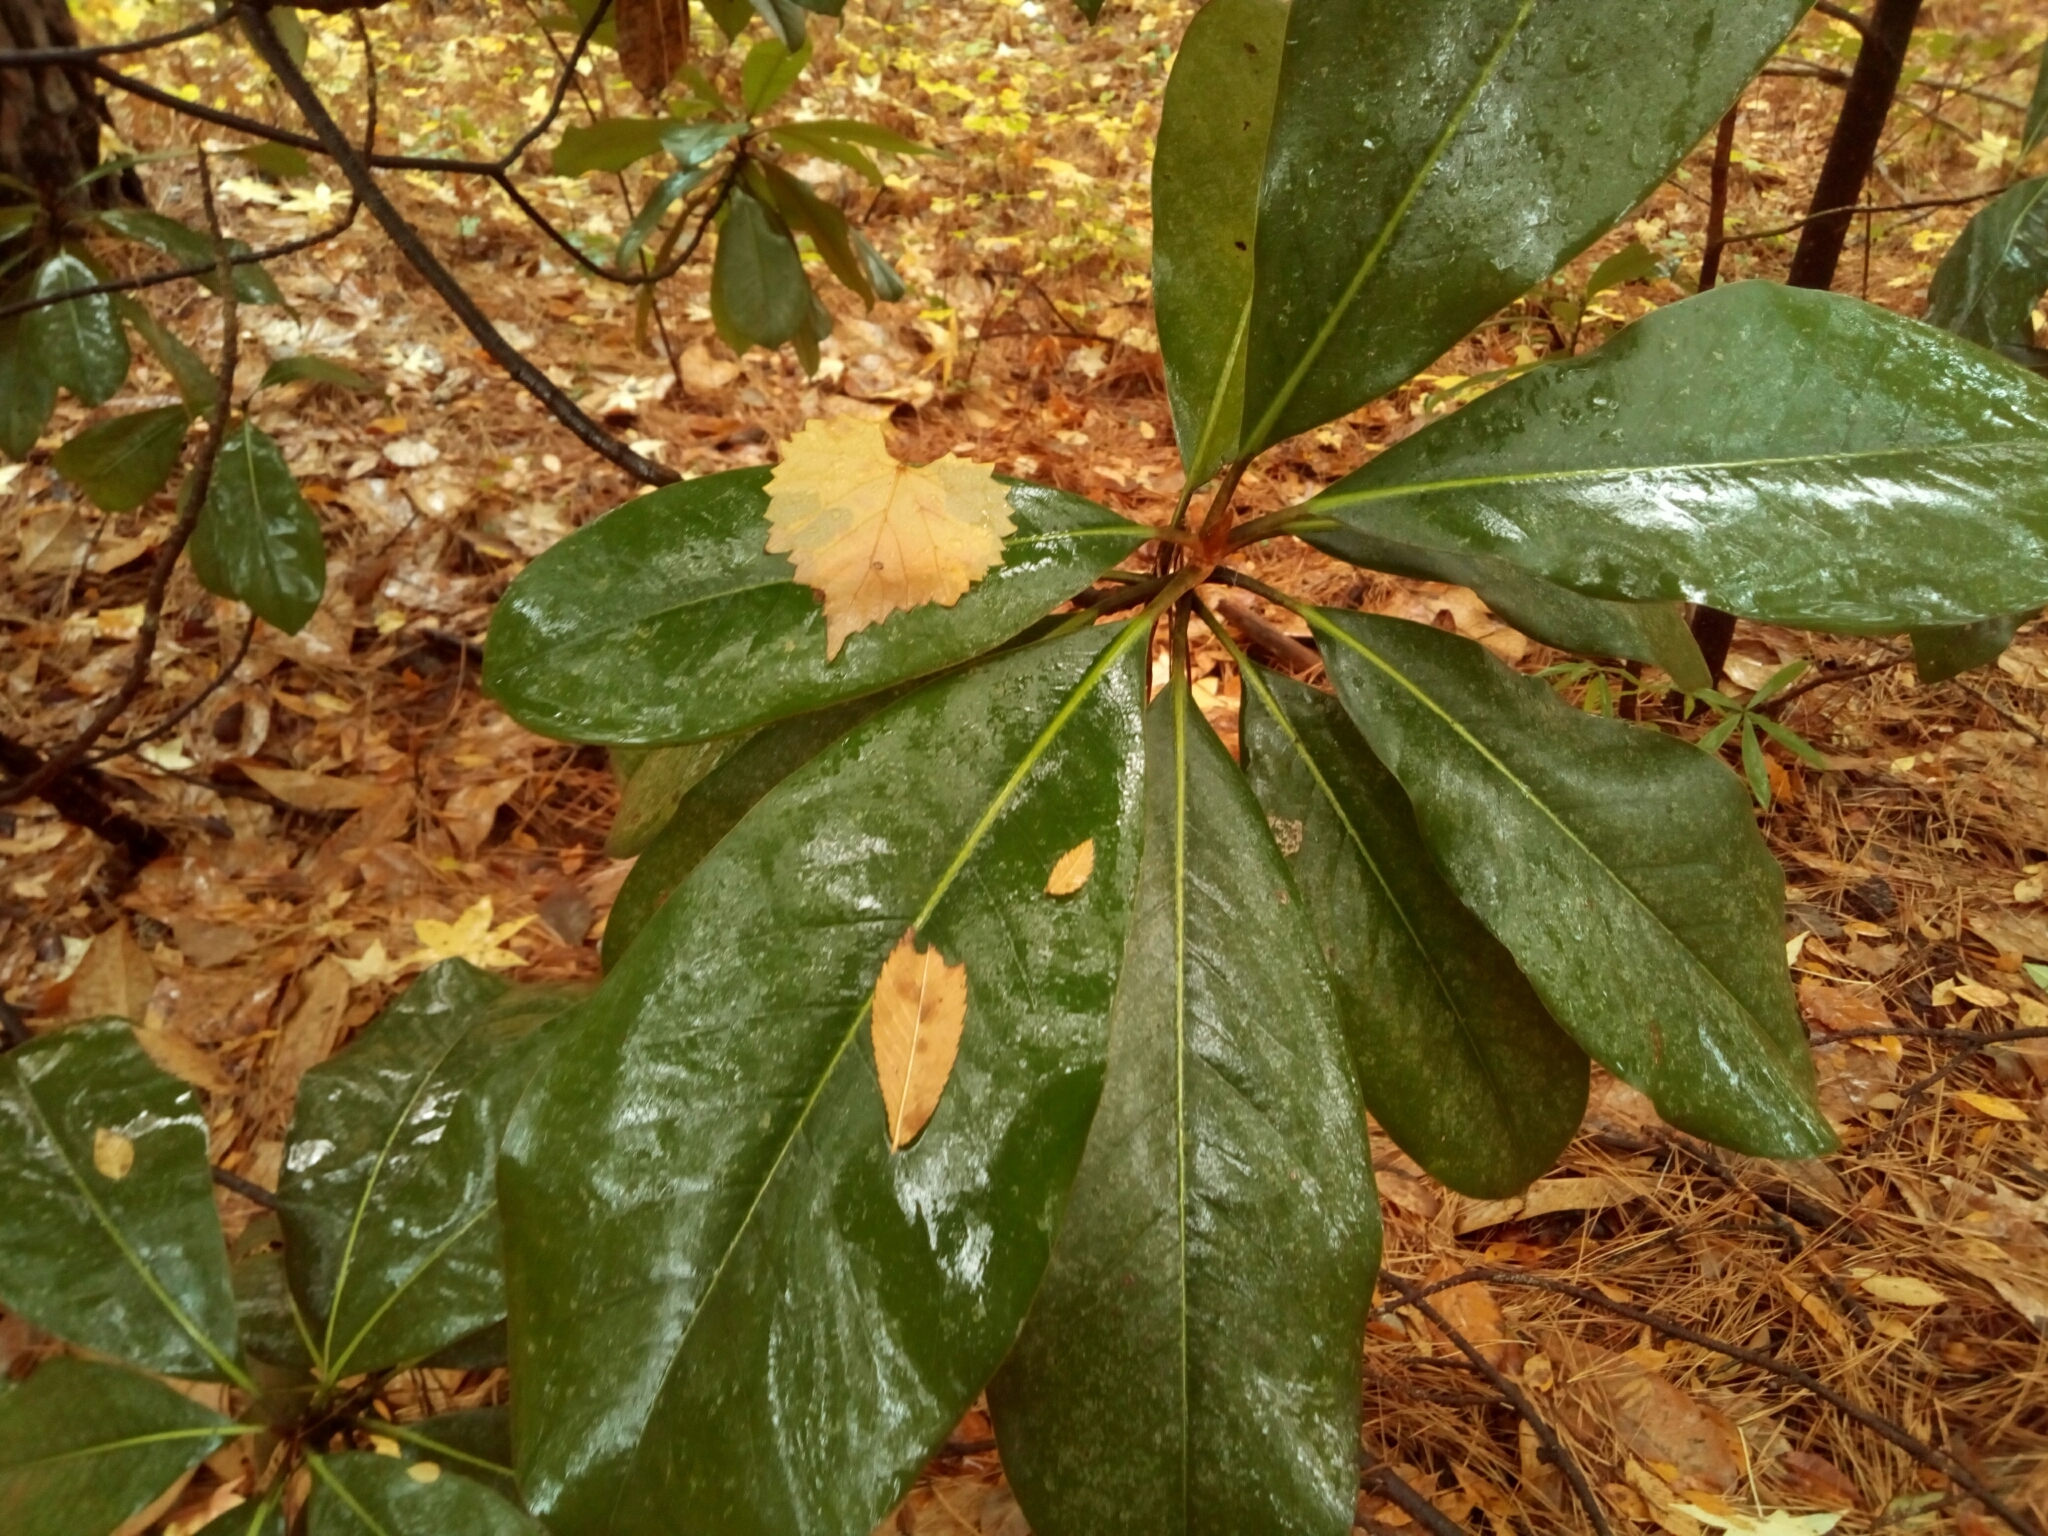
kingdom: Plantae
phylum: Tracheophyta
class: Magnoliopsida
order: Magnoliales
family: Magnoliaceae
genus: Magnolia
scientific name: Magnolia grandiflora
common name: Southern magnolia
